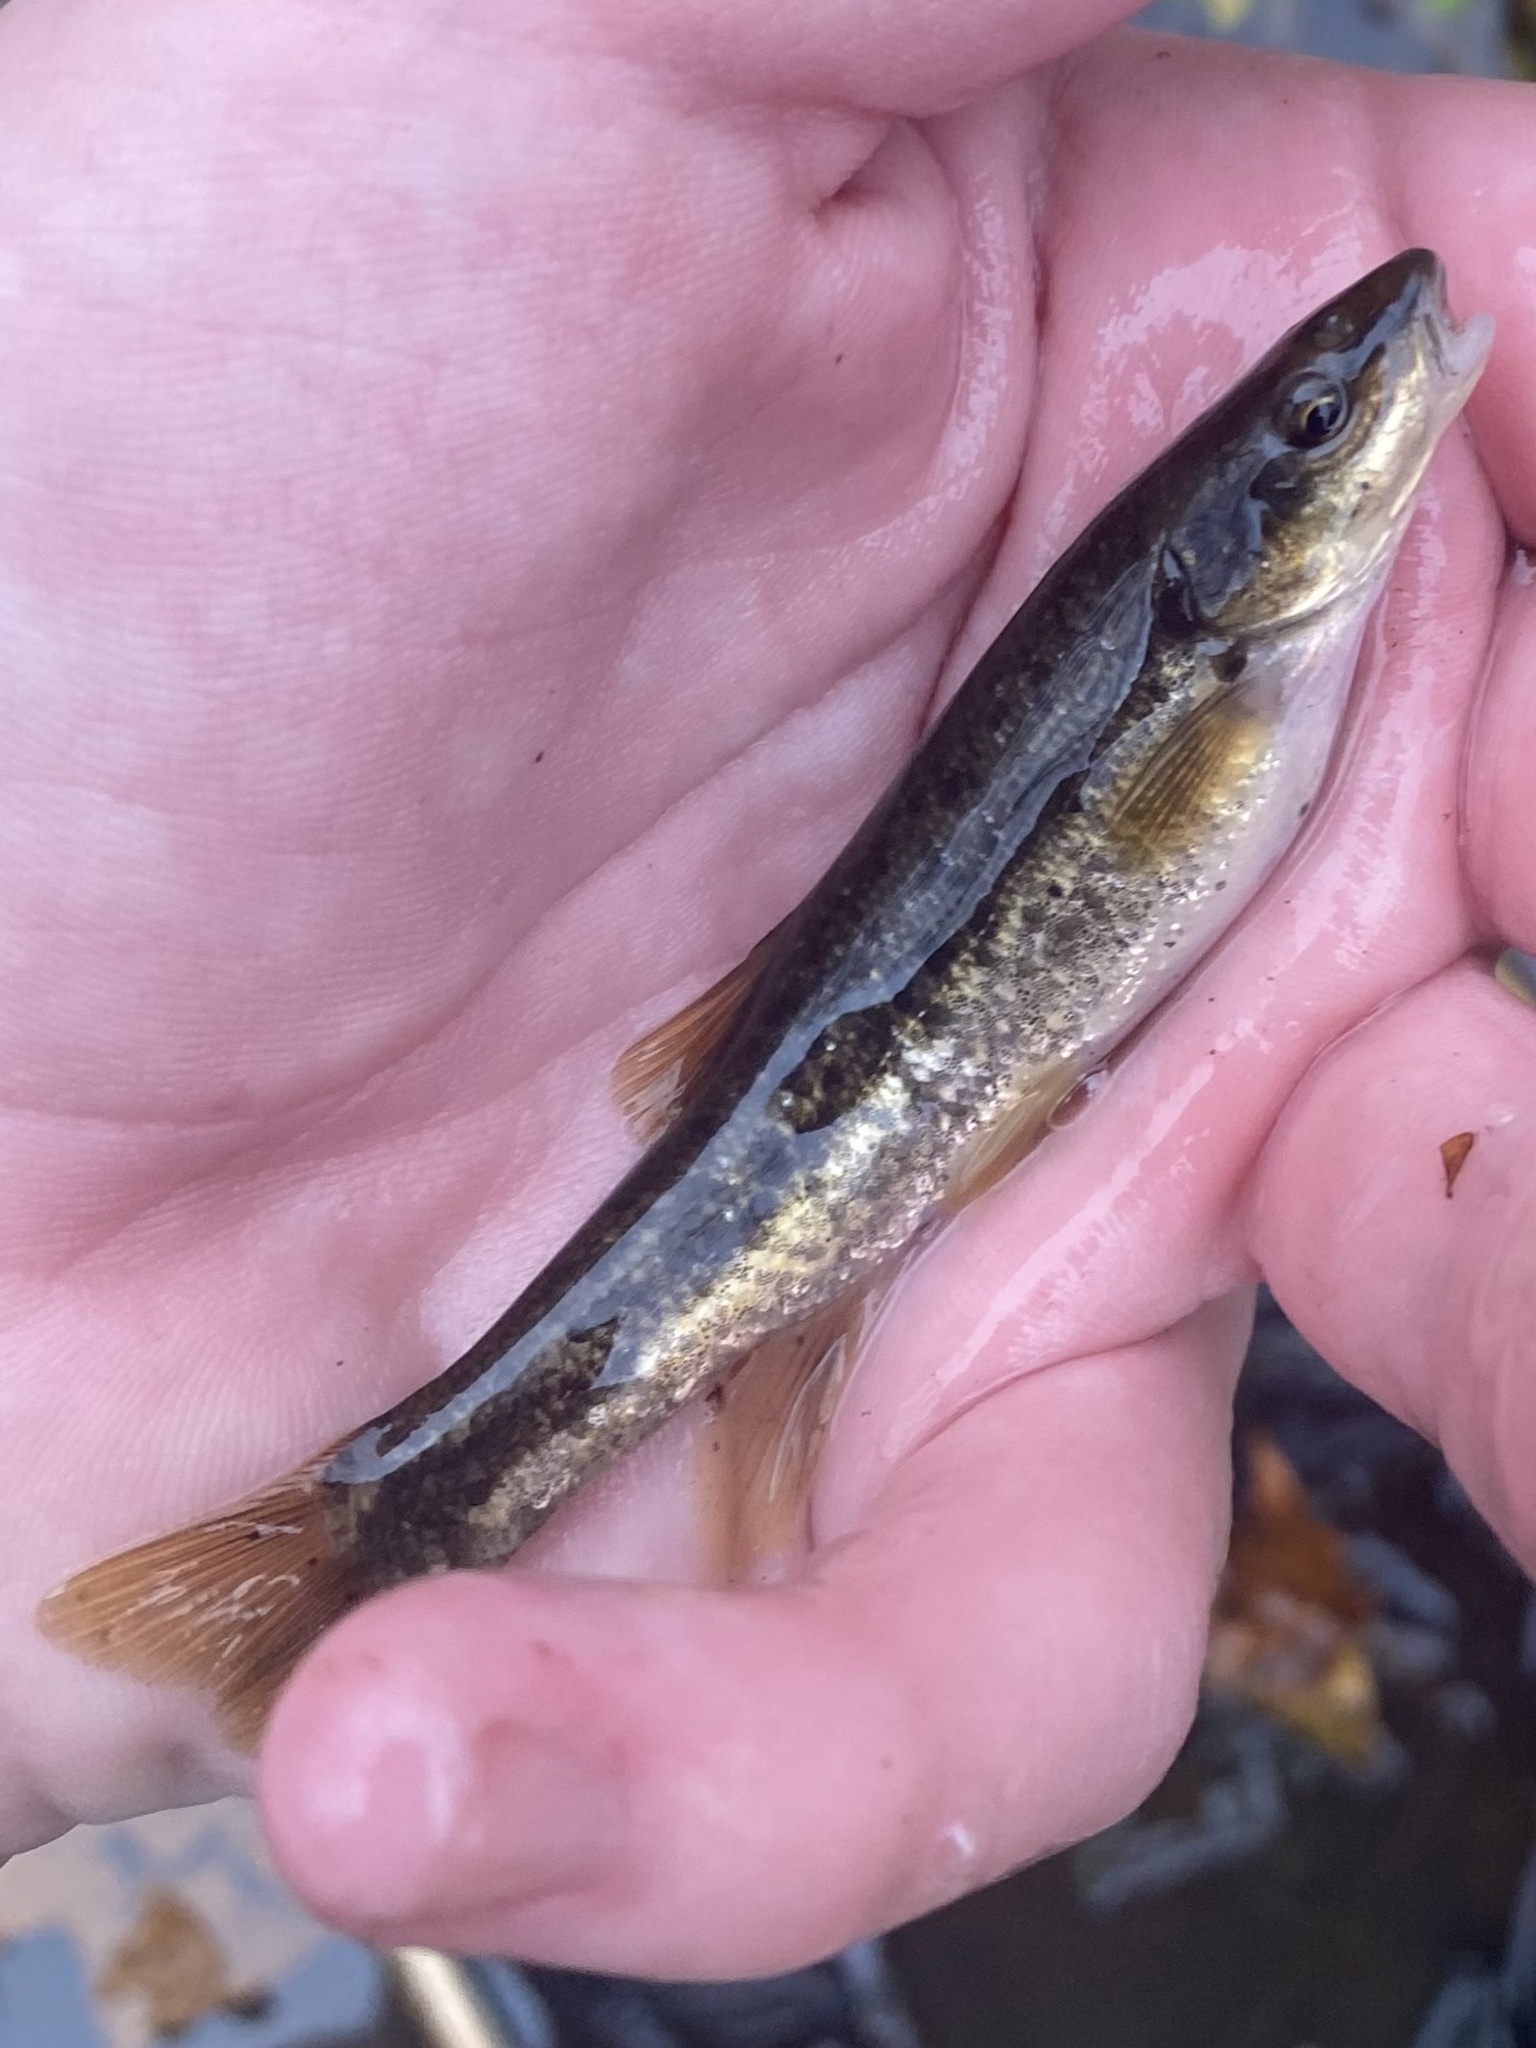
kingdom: Animalia
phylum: Chordata
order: Cypriniformes
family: Cyprinidae
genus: Rhinichthys
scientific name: Rhinichthys obtusus
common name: Western blacknose dace
